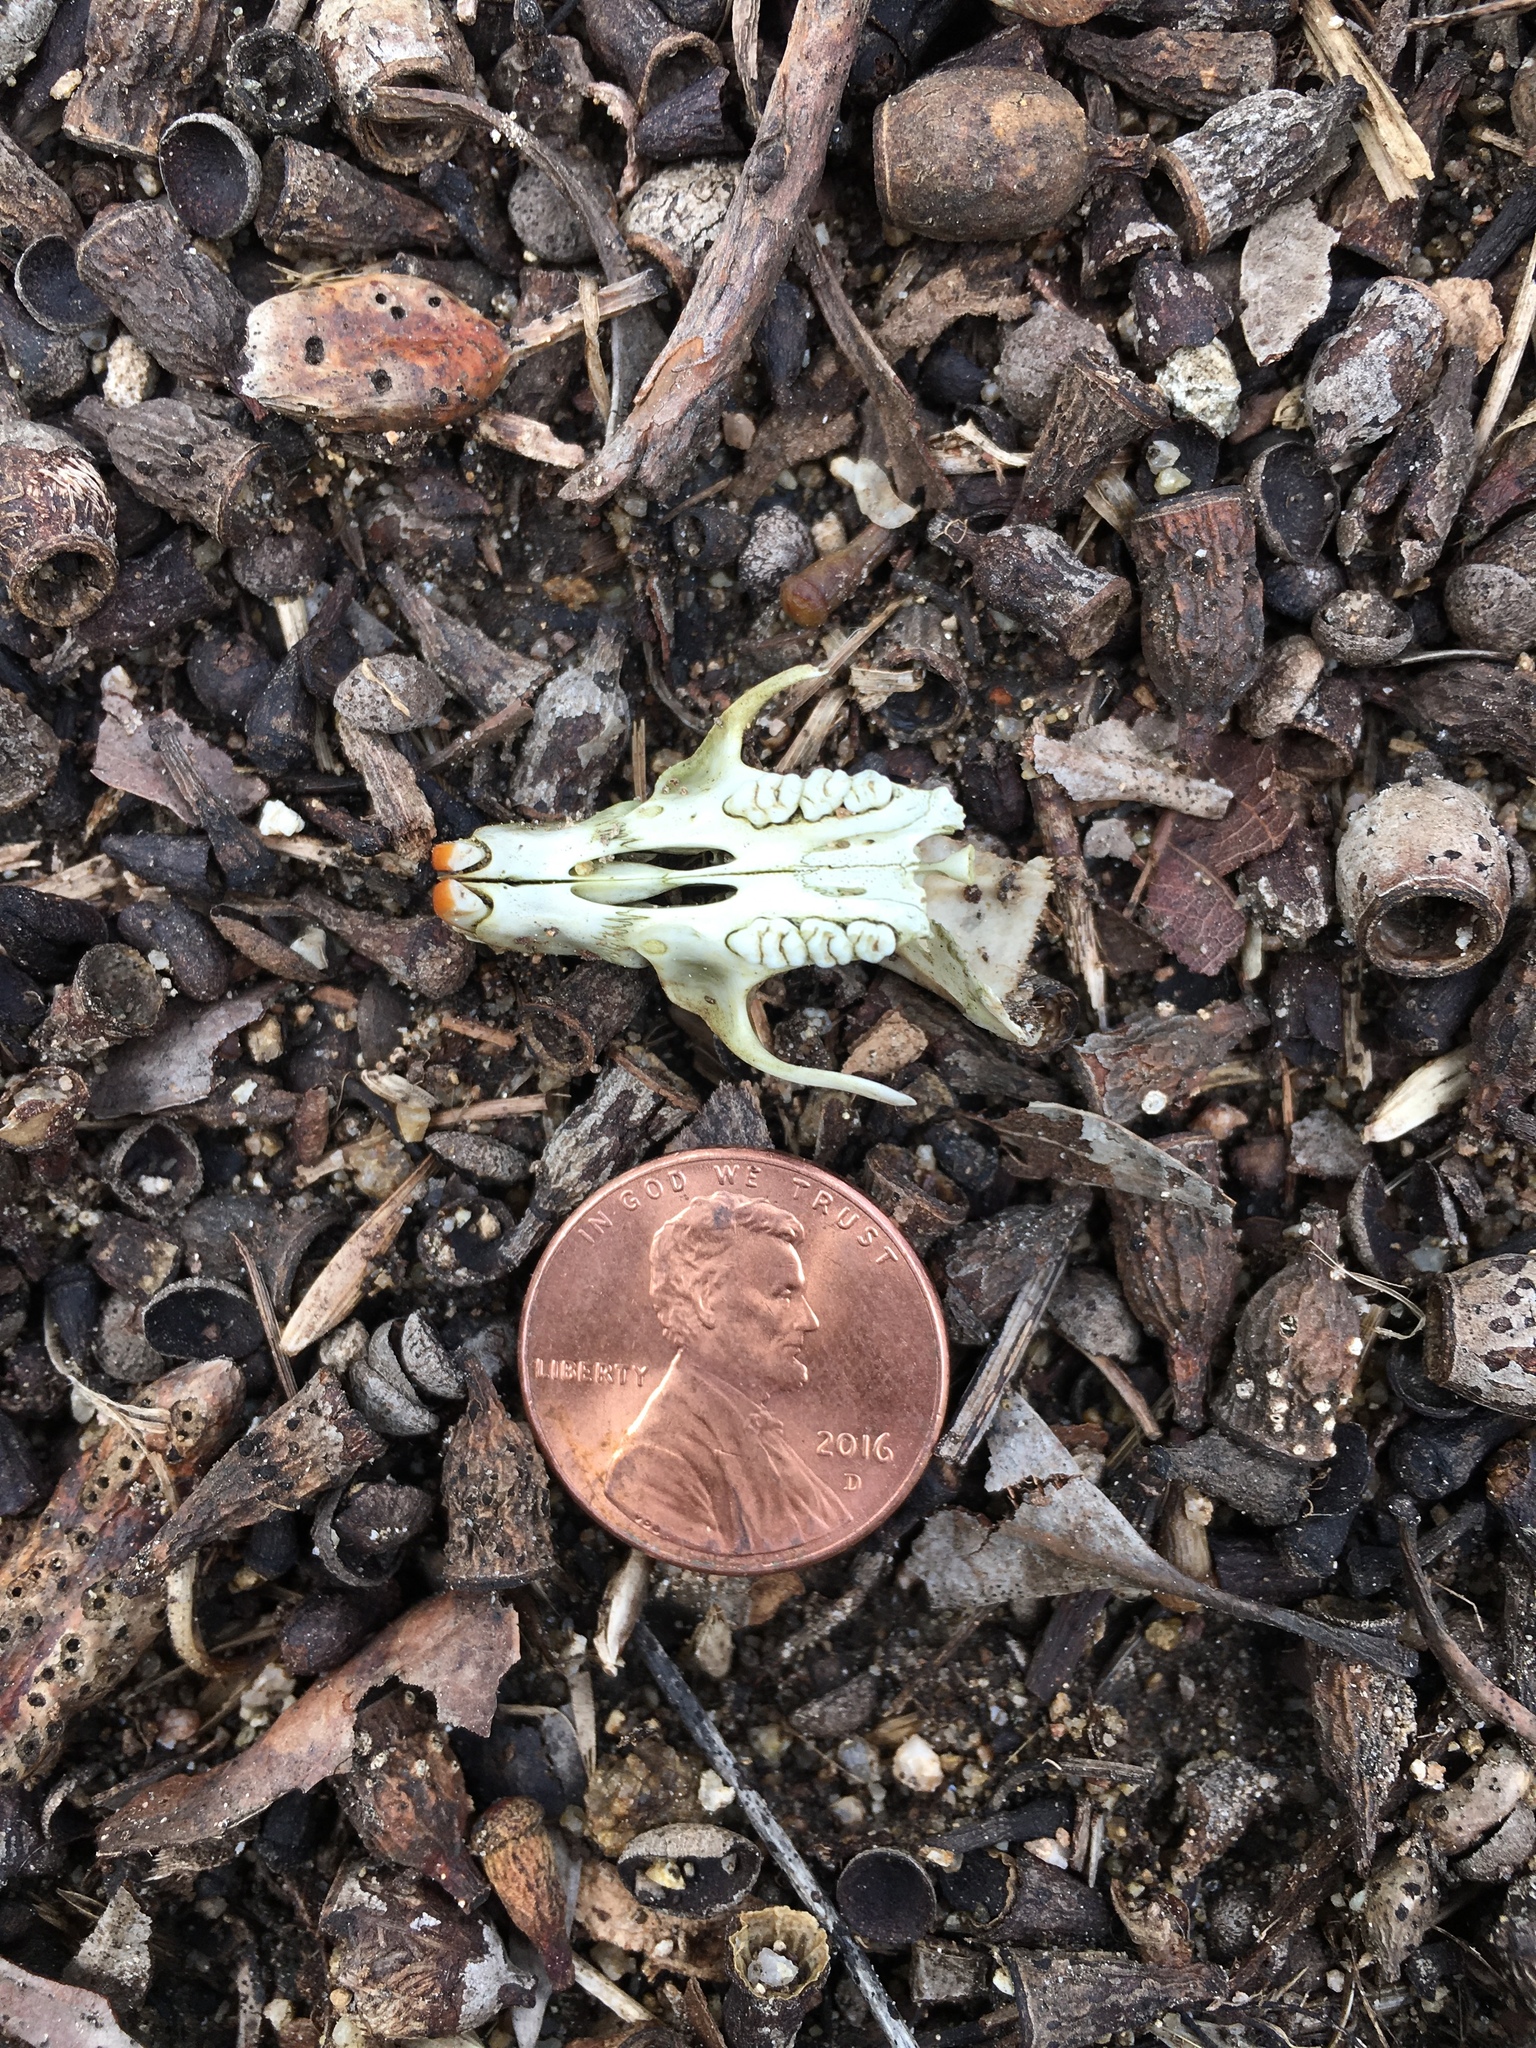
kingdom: Animalia
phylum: Chordata
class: Mammalia
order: Rodentia
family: Muridae
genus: Rattus
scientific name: Rattus
